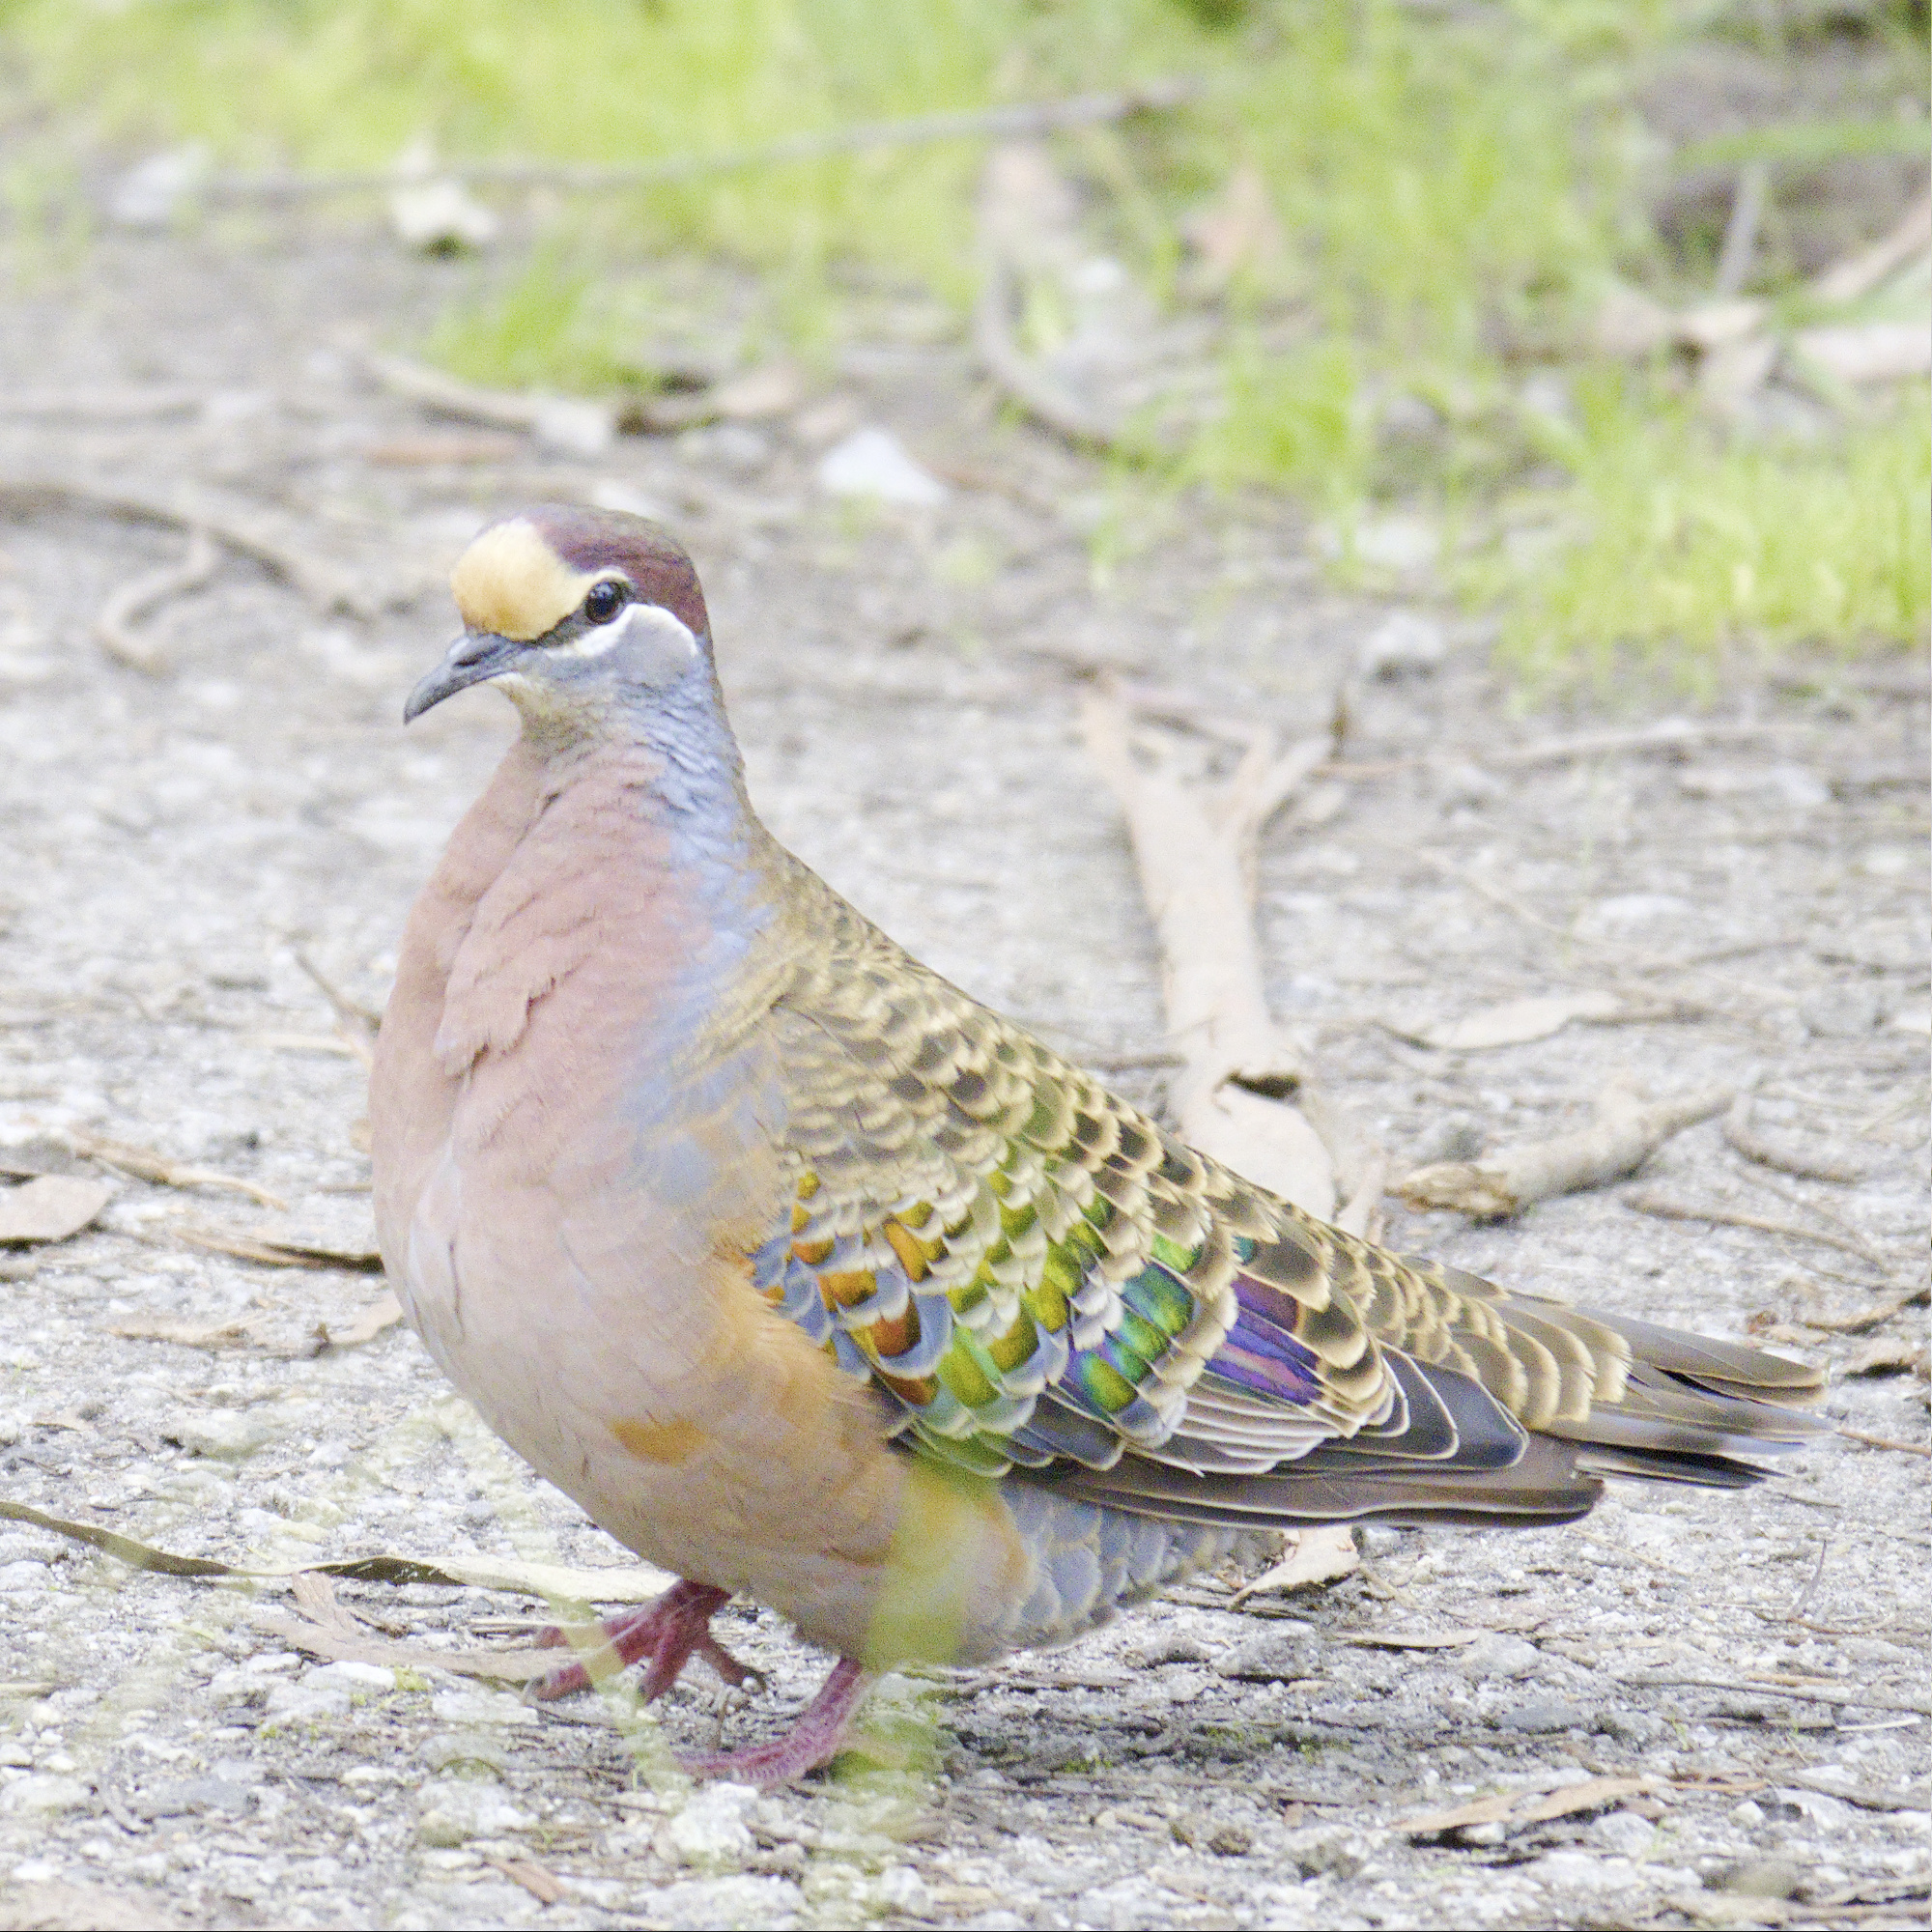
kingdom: Animalia
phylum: Chordata
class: Aves
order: Columbiformes
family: Columbidae
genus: Phaps
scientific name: Phaps chalcoptera
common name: Common bronzewing
